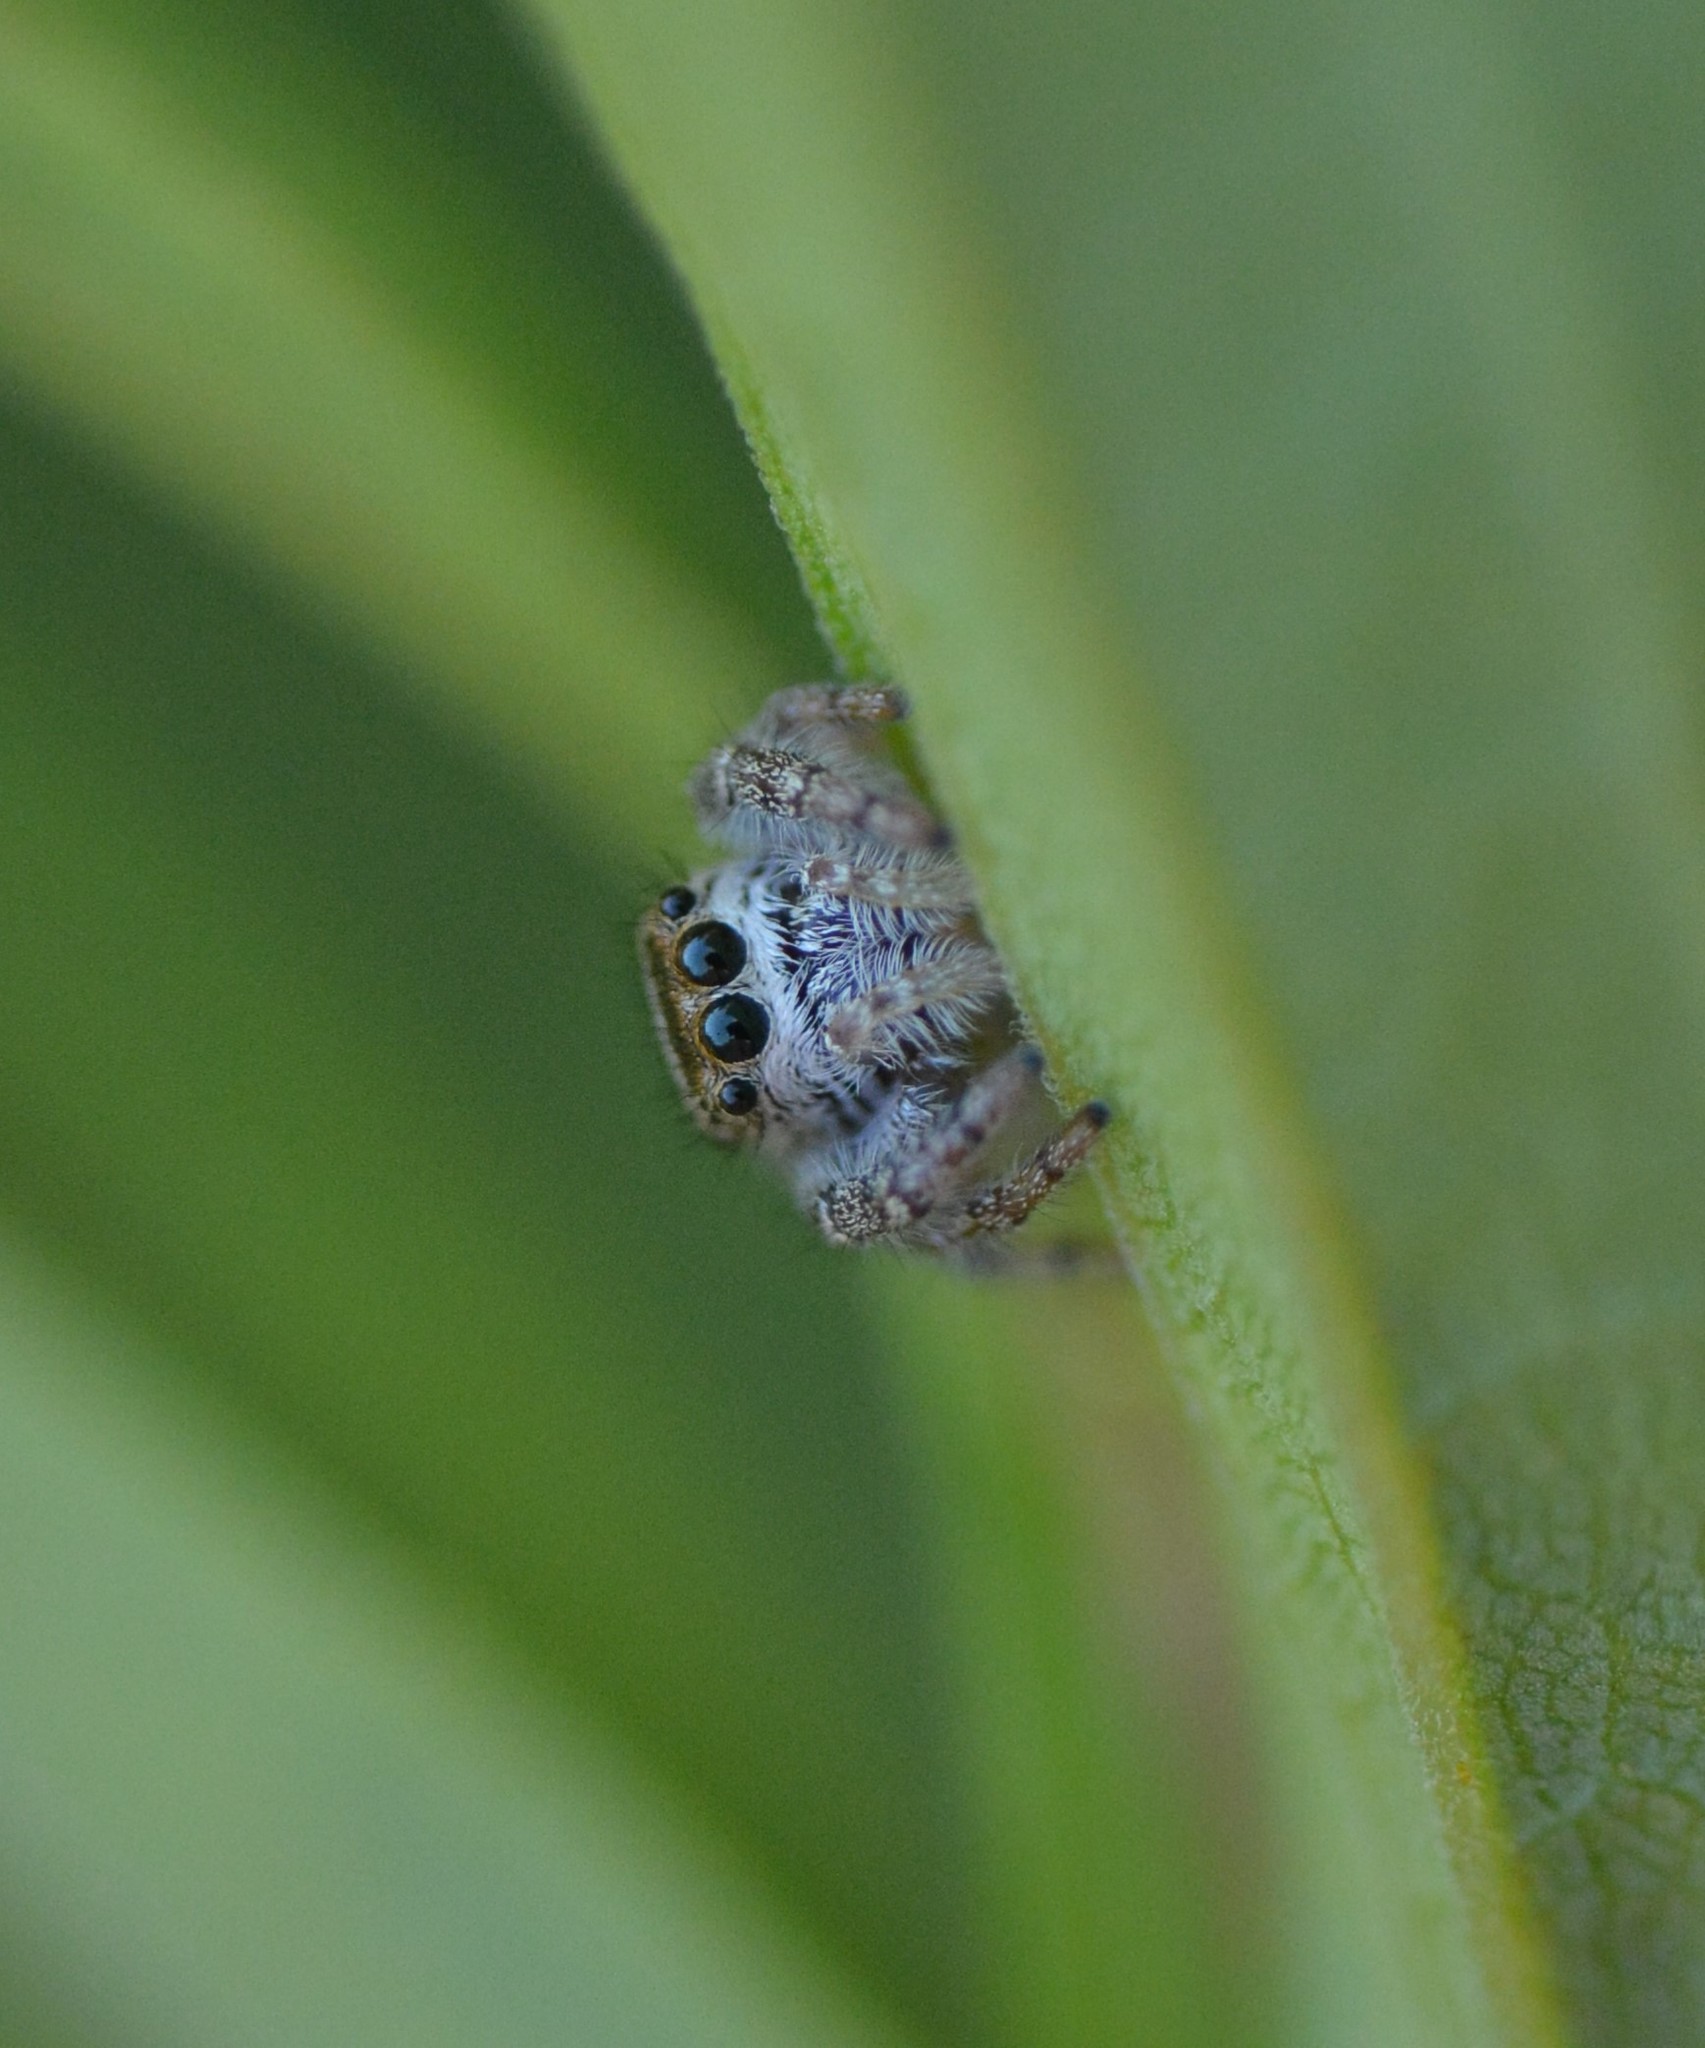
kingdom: Animalia
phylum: Arthropoda
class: Arachnida
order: Araneae
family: Salticidae
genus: Eris
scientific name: Eris militaris
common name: Bronze jumper
